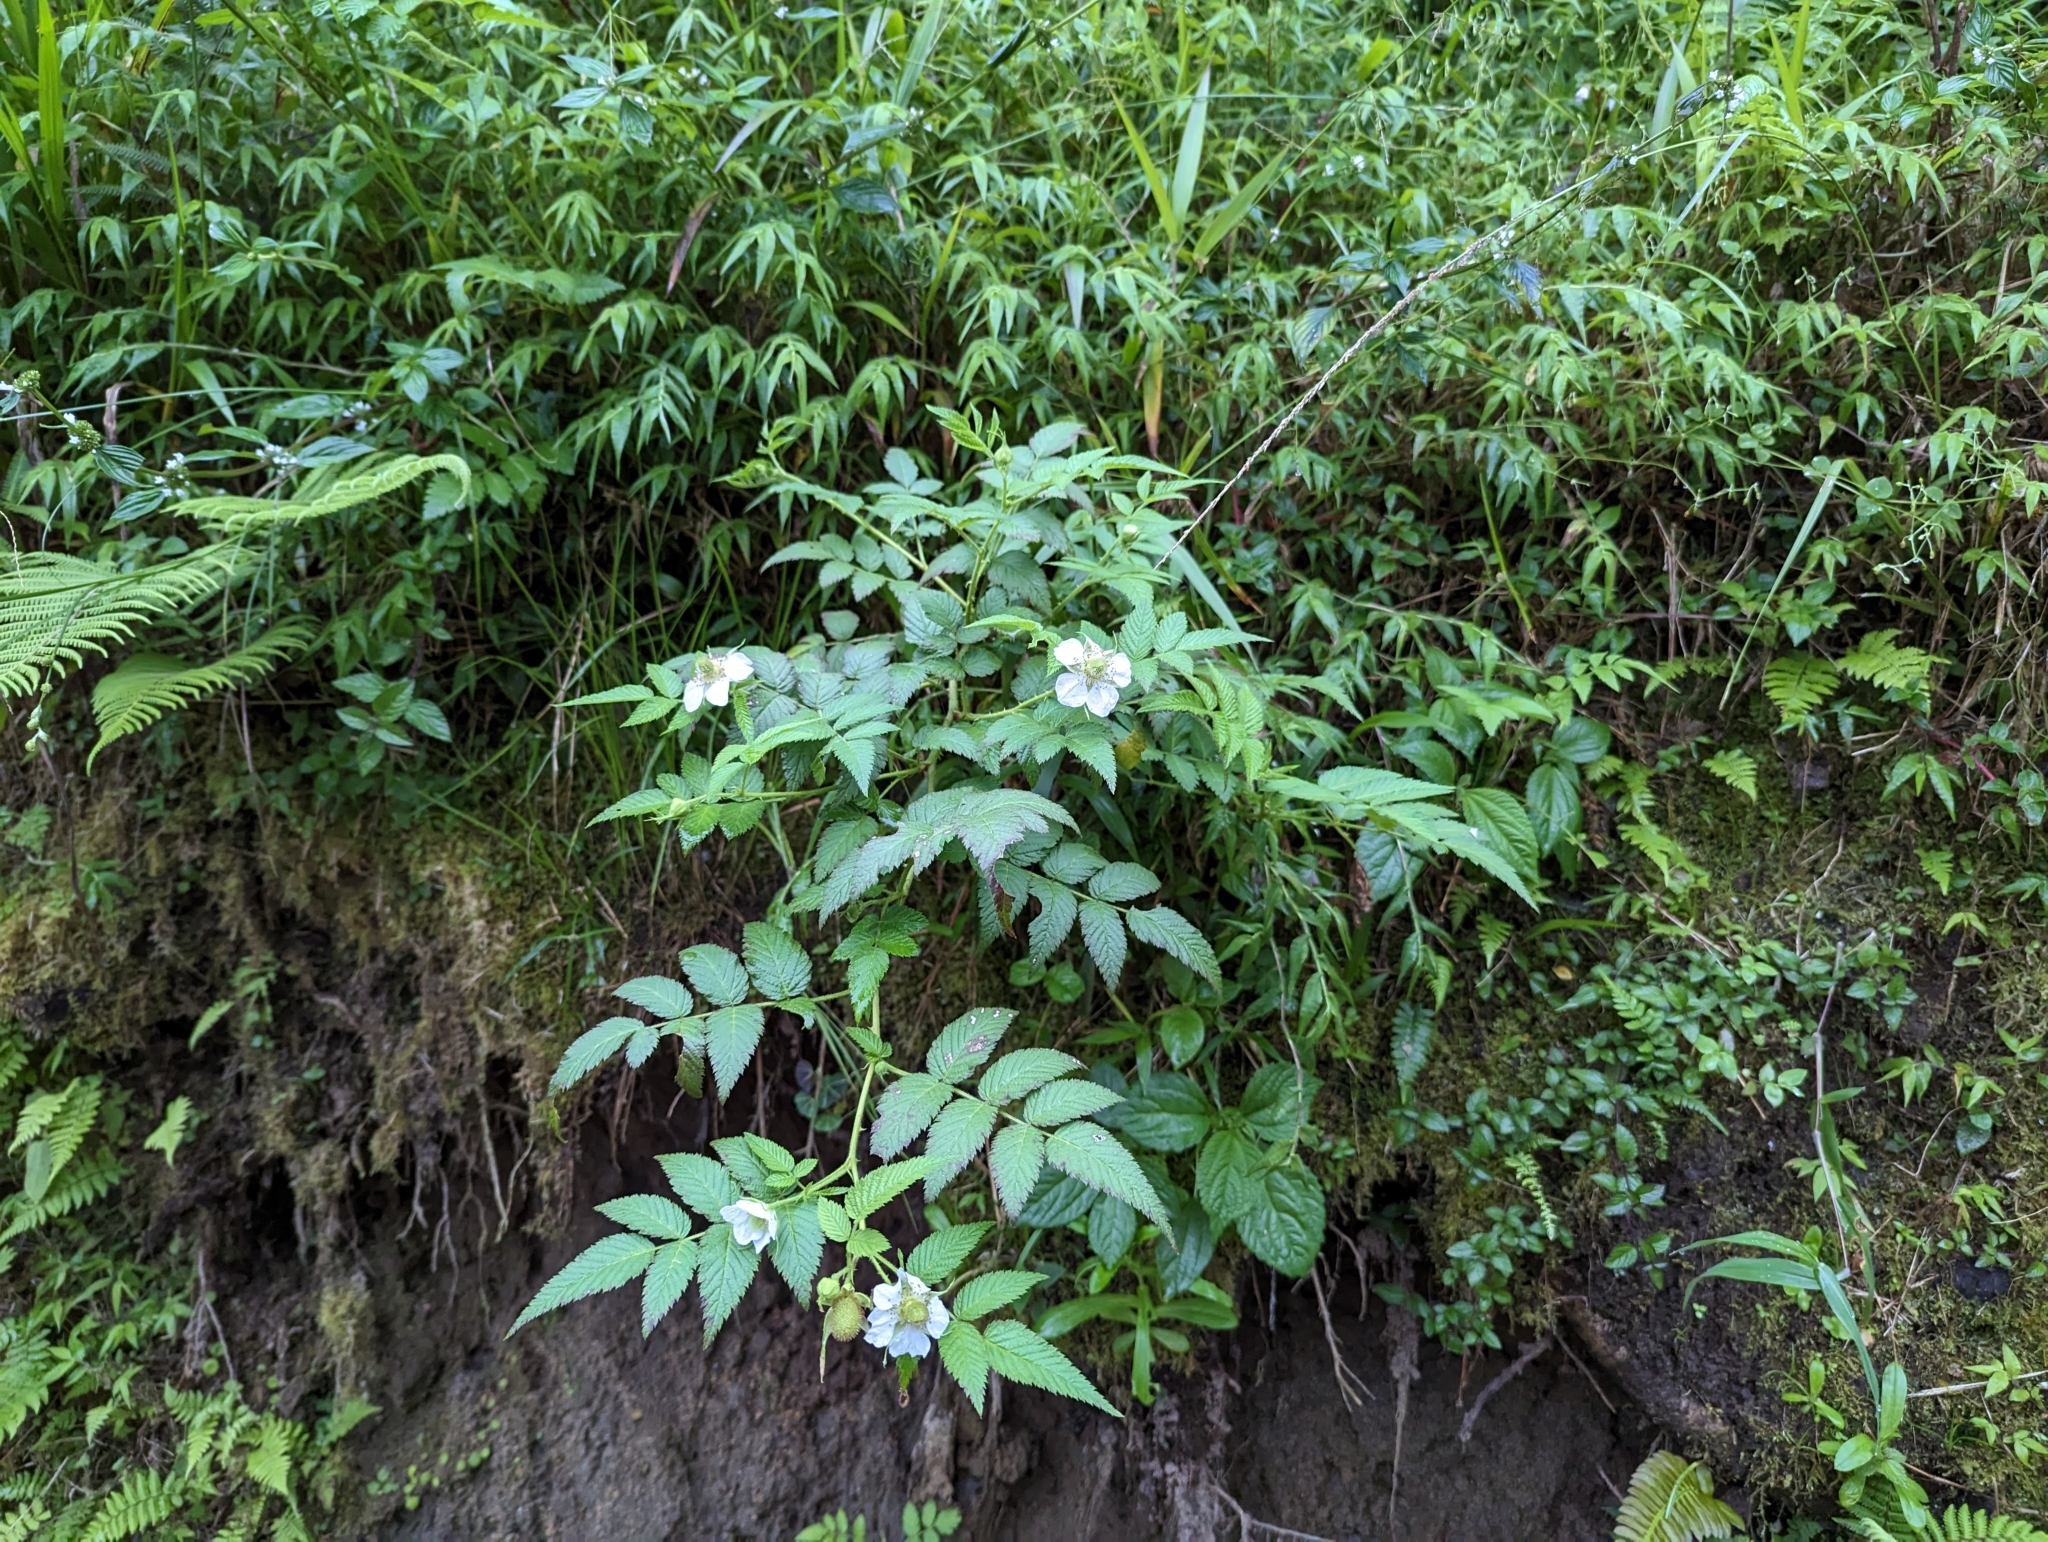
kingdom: Plantae
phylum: Tracheophyta
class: Magnoliopsida
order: Rosales
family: Rosaceae
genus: Rubus
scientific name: Rubus rosifolius
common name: Roseleaf raspberry
